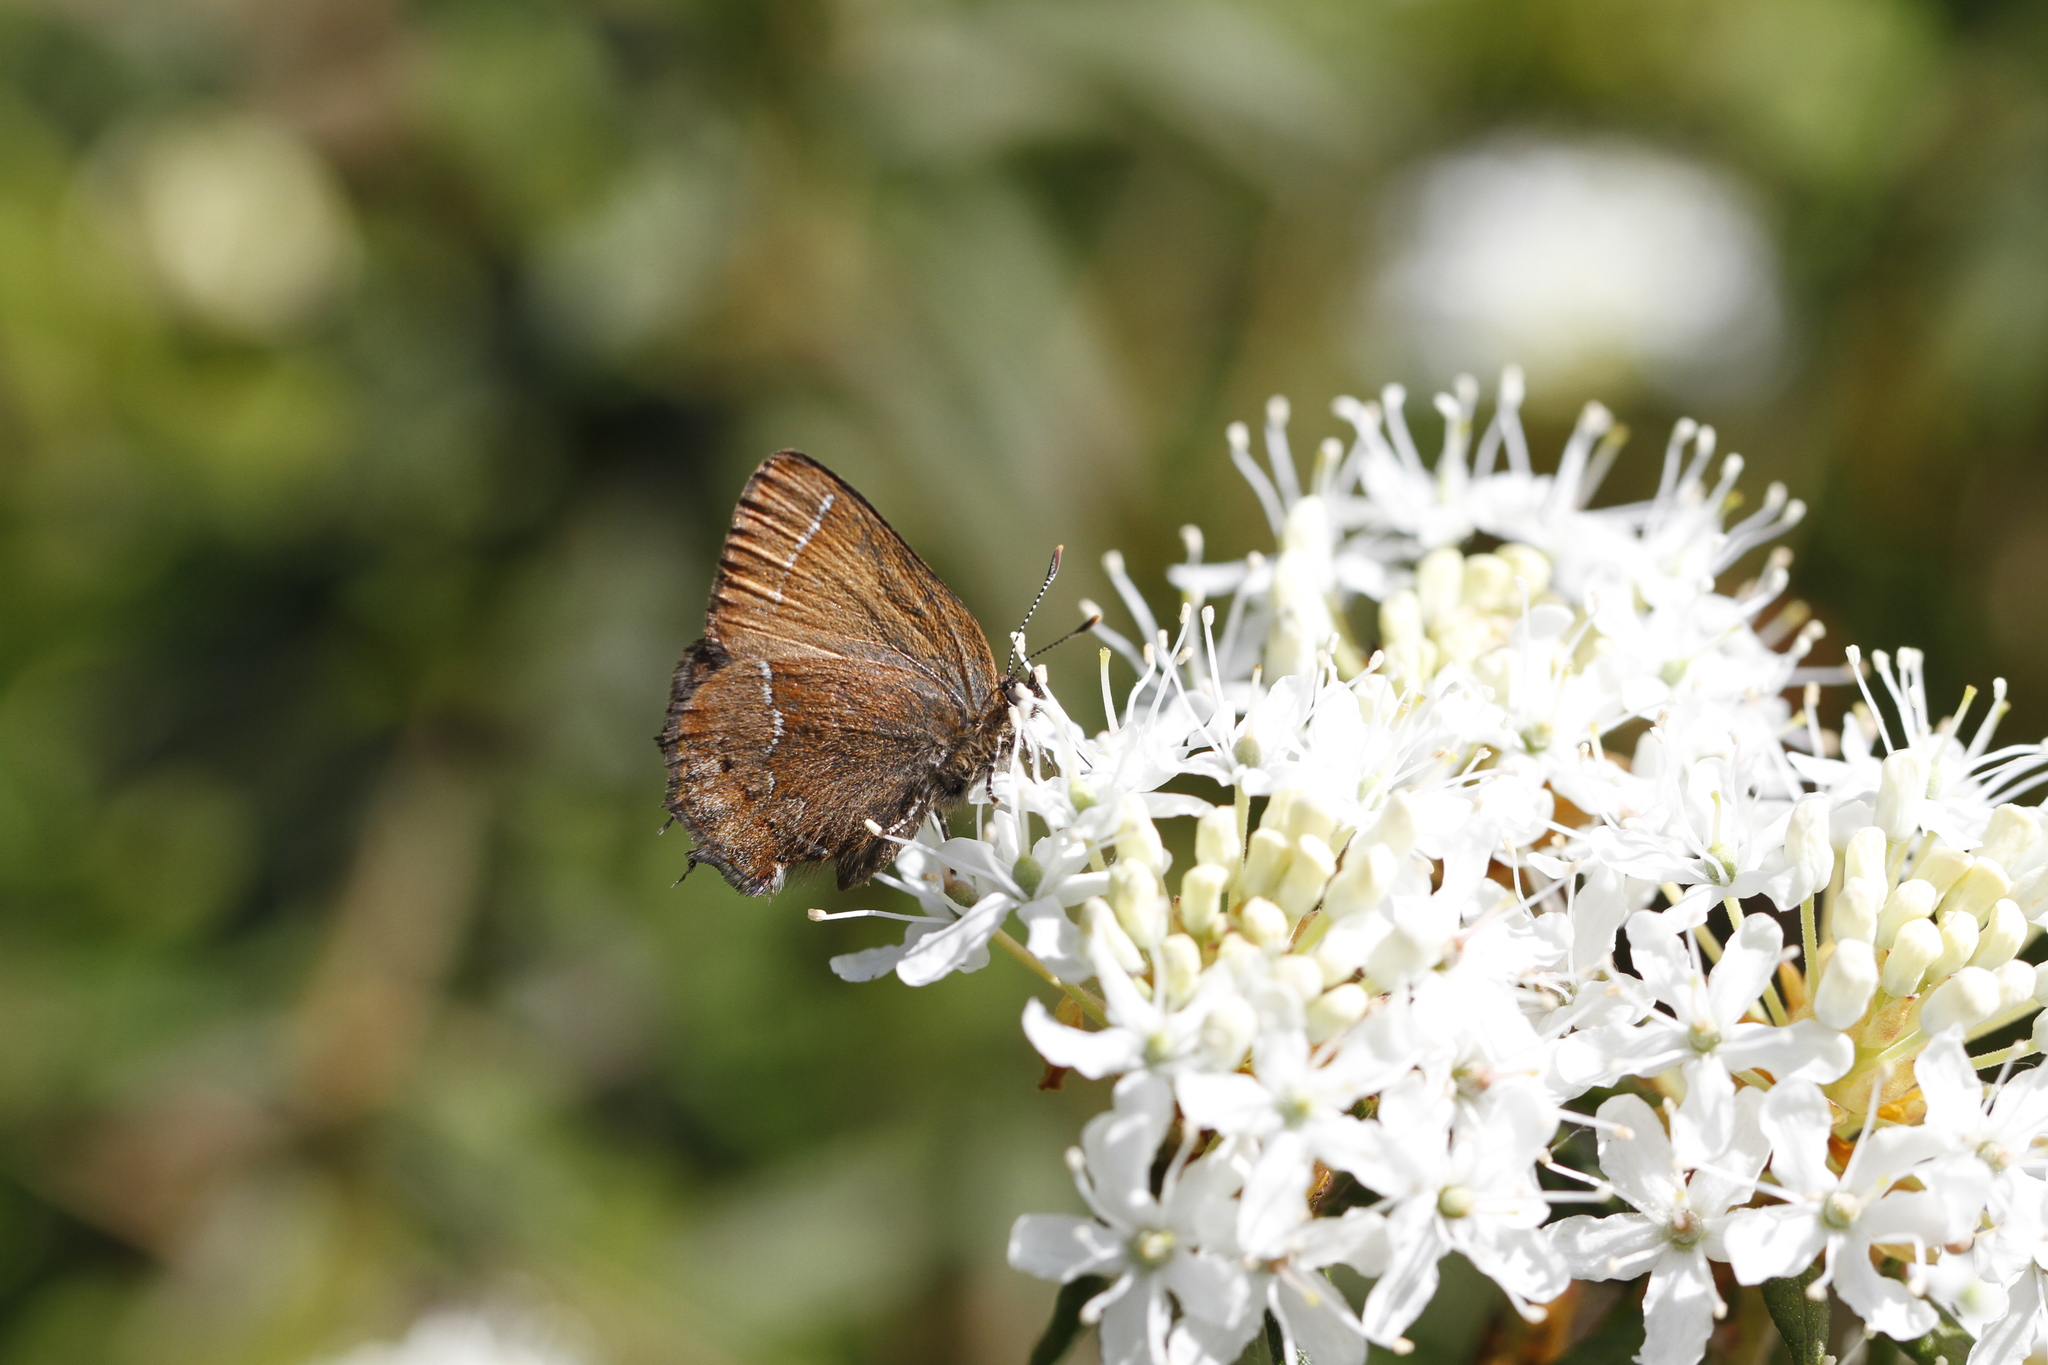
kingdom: Animalia
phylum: Arthropoda
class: Insecta
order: Lepidoptera
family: Lycaenidae
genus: Mitoura
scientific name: Mitoura gryneus
